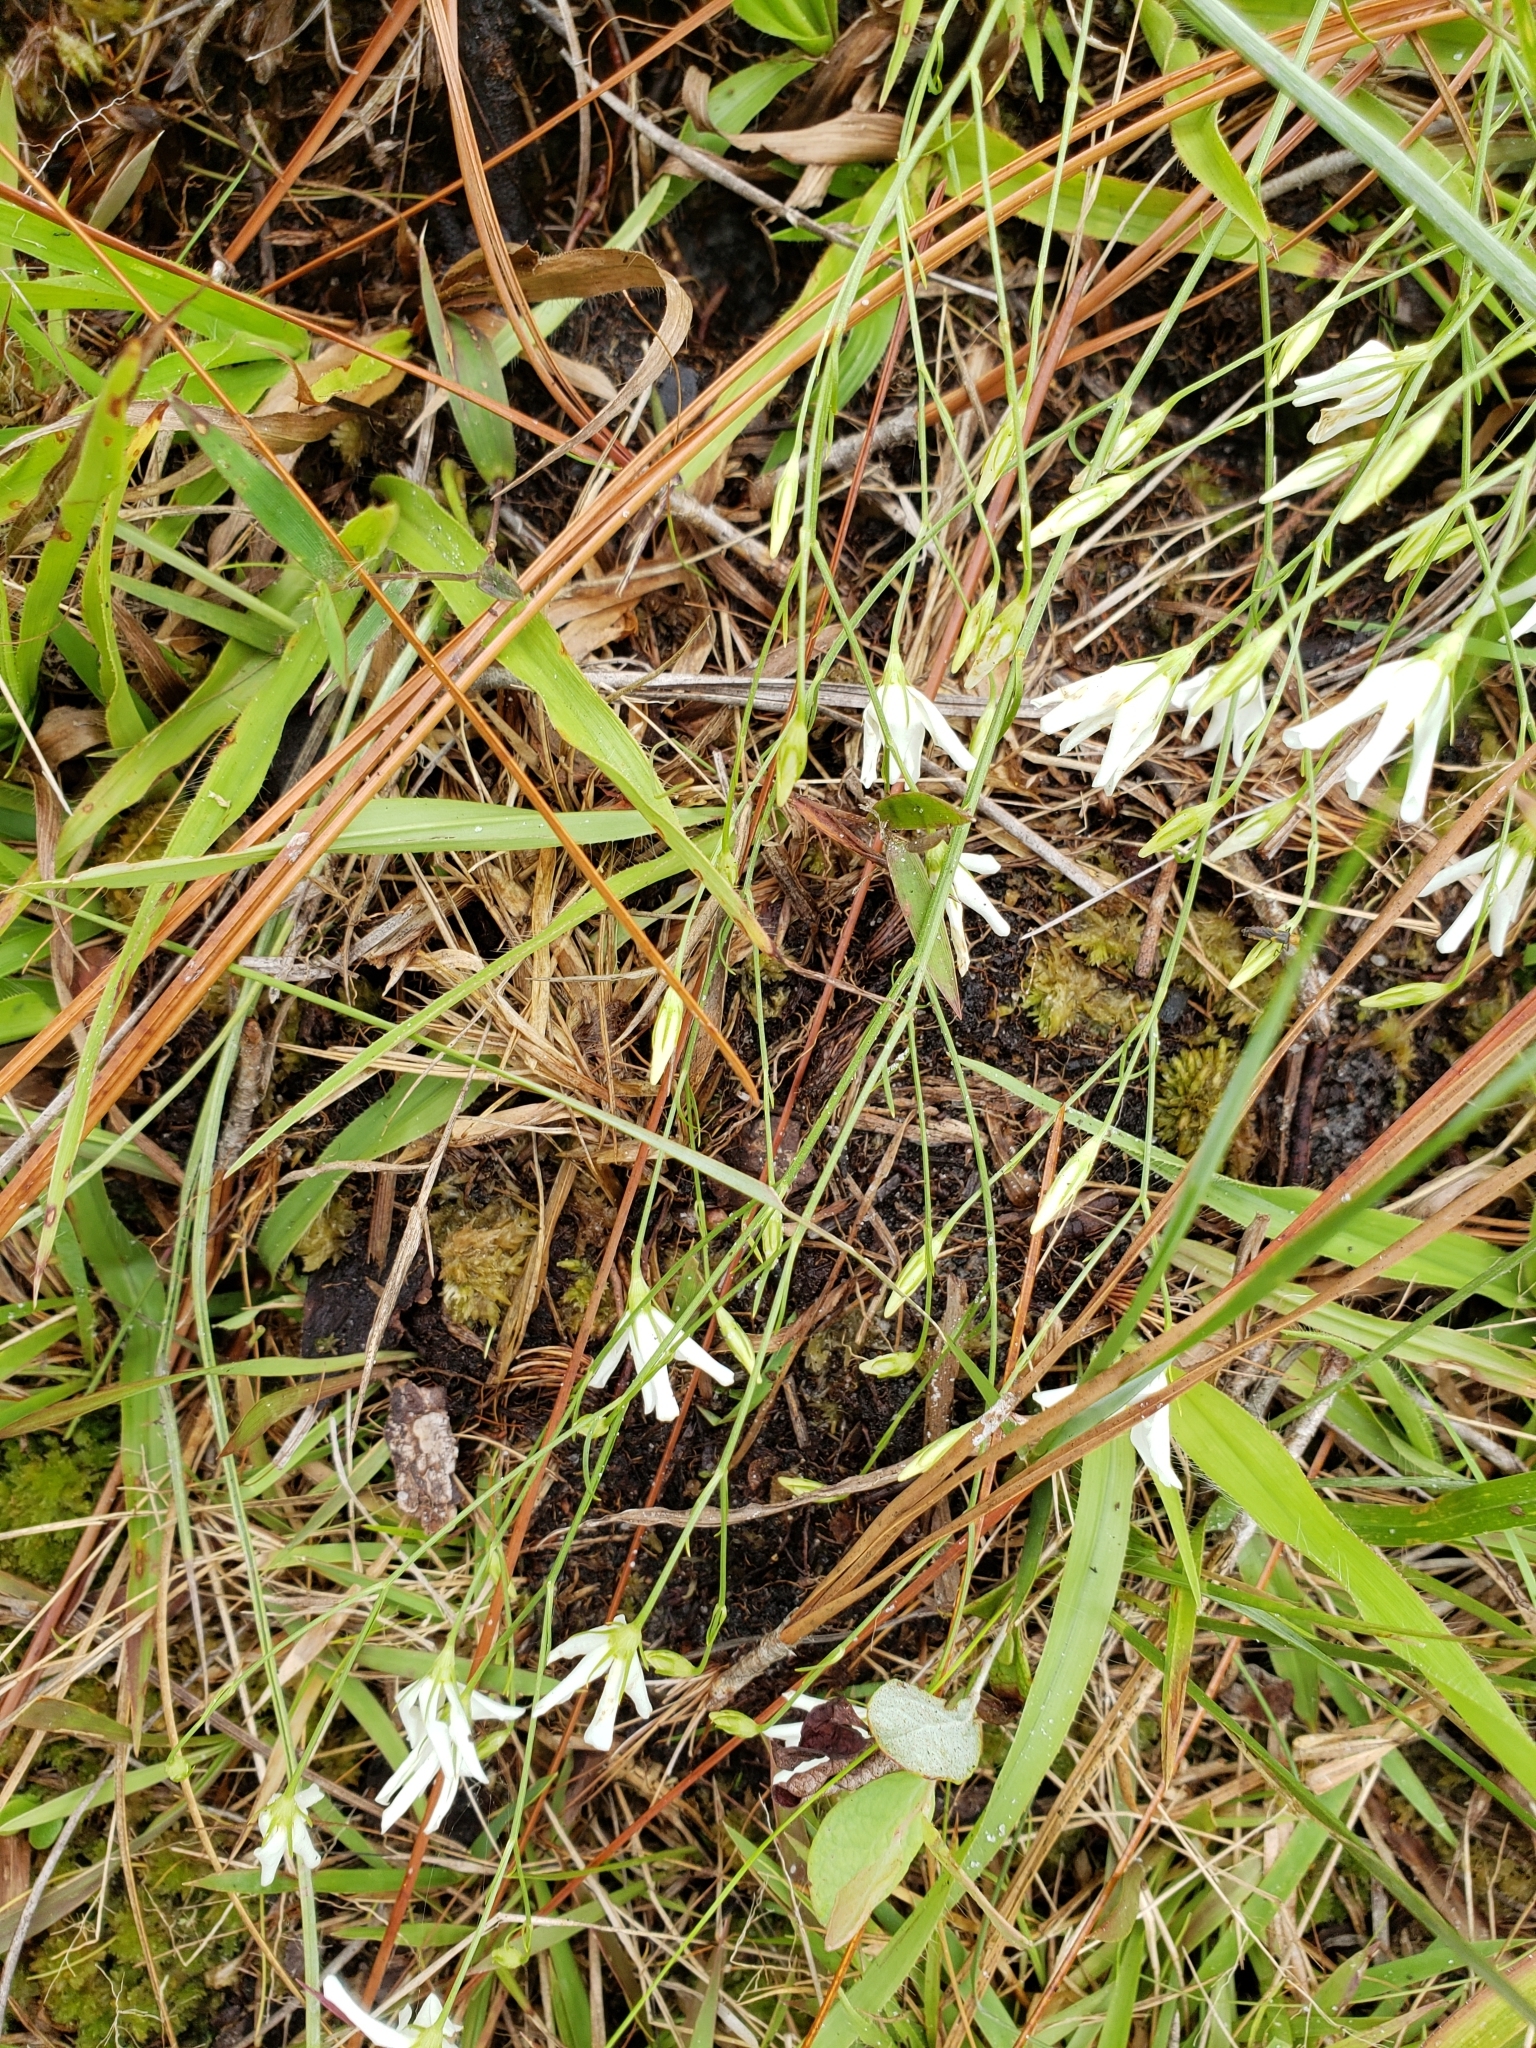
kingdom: Plantae
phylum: Tracheophyta
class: Magnoliopsida
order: Gentianales
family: Gentianaceae
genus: Sabatia
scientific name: Sabatia brevifolia
